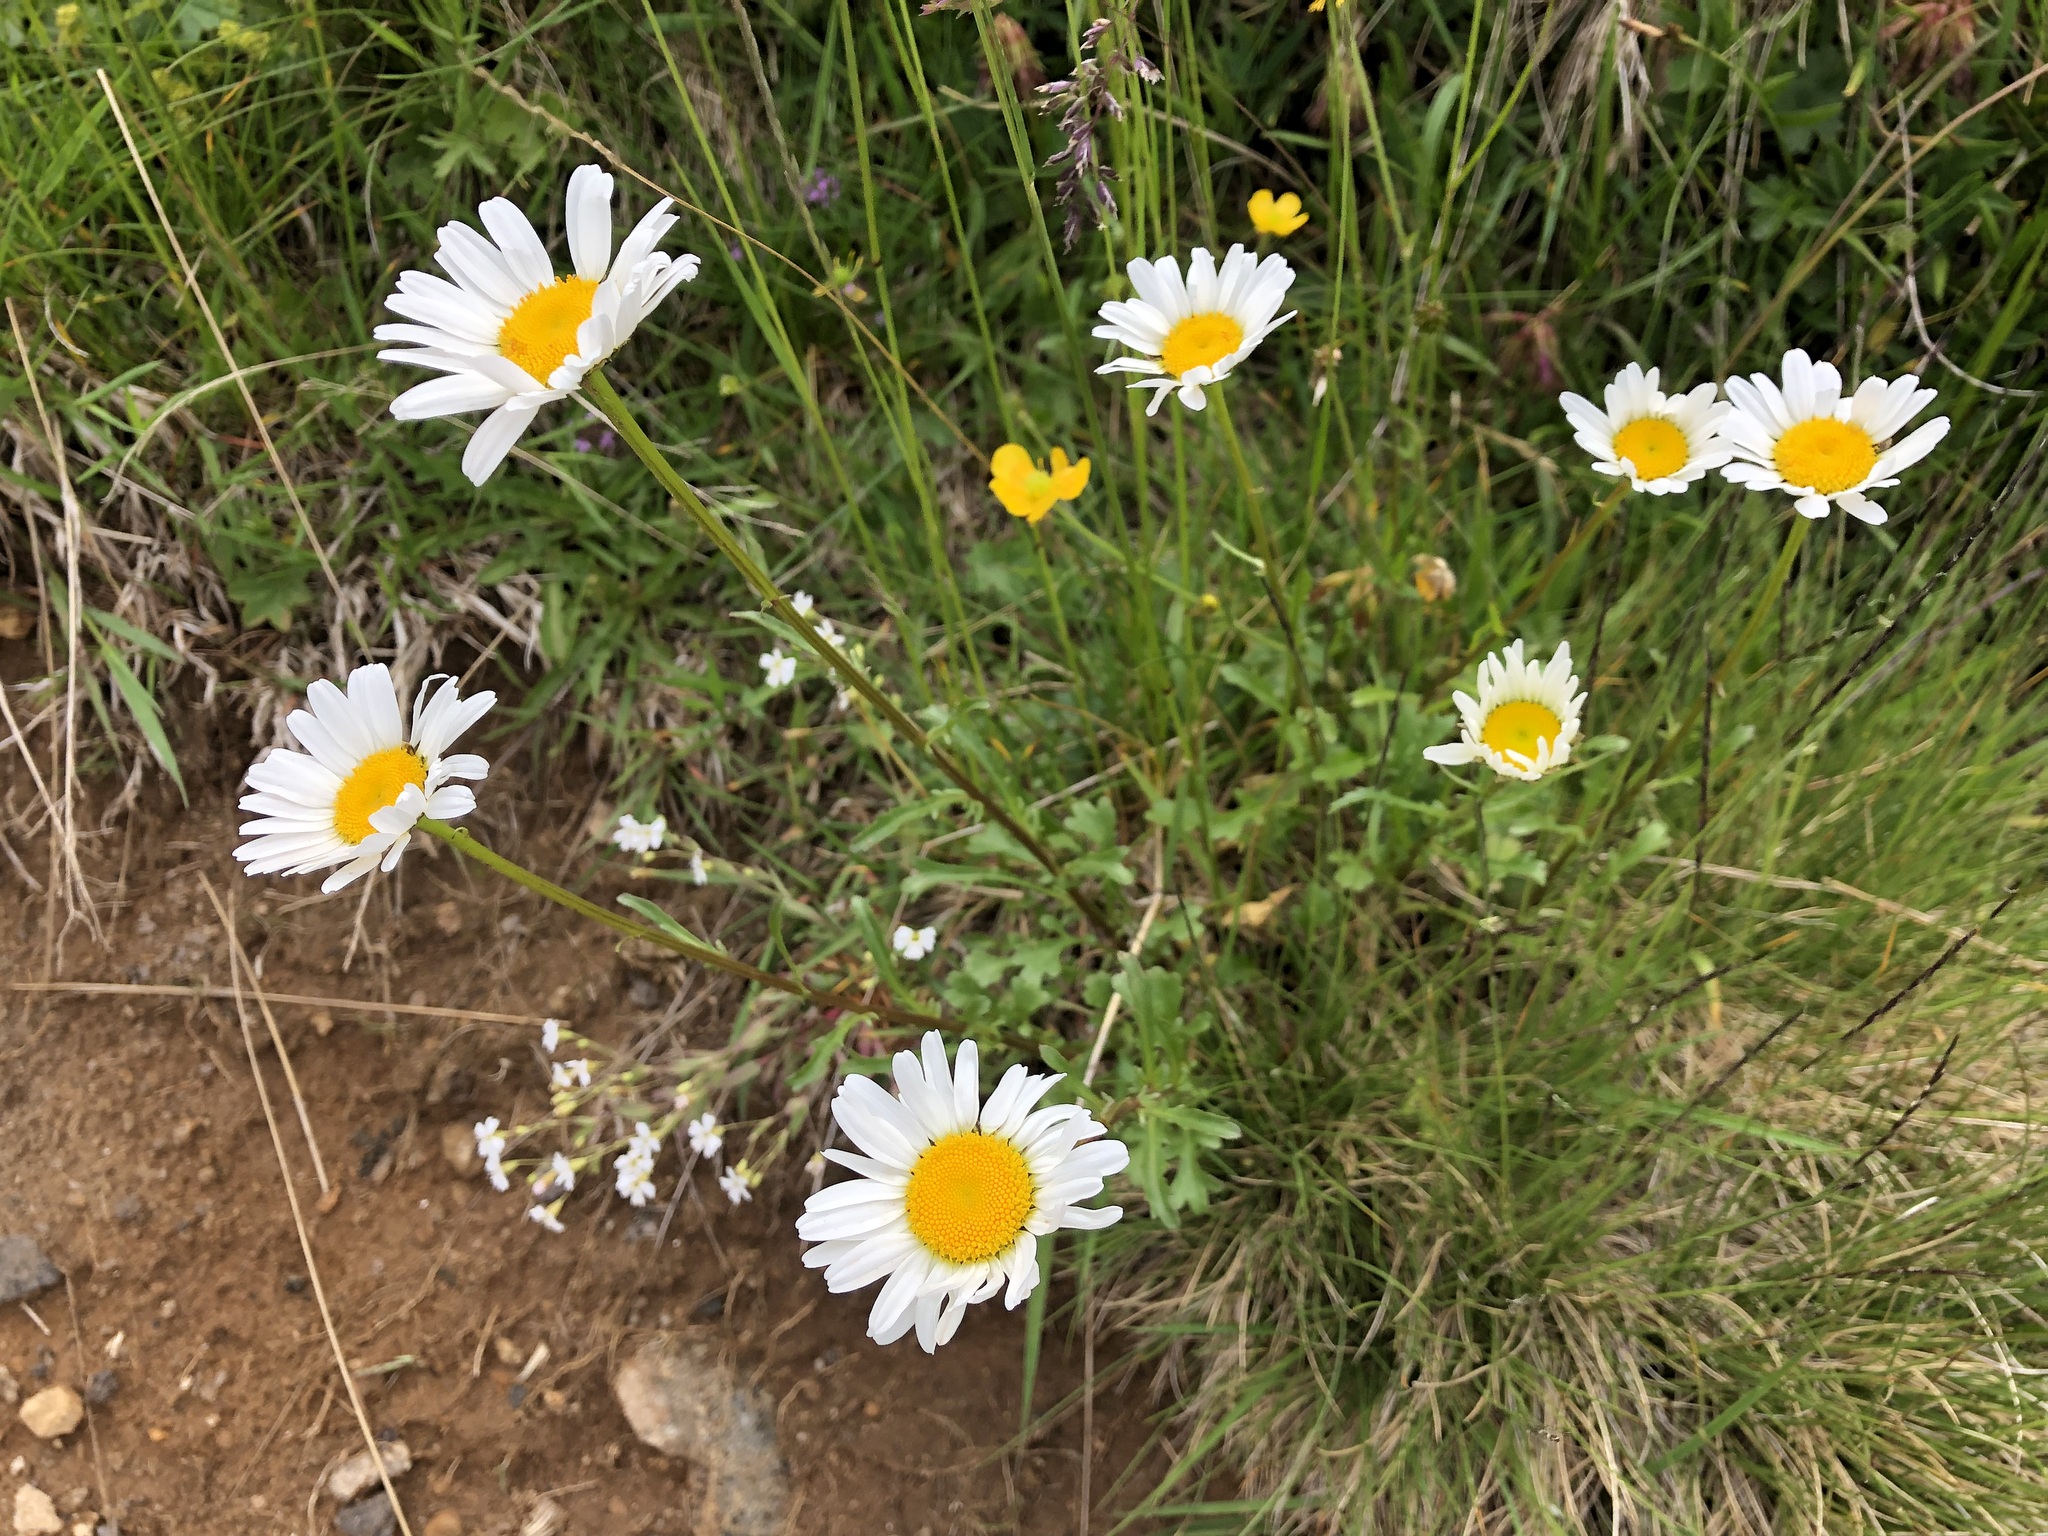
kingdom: Plantae
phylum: Tracheophyta
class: Magnoliopsida
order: Asterales
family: Asteraceae
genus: Leucanthemum
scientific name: Leucanthemum vulgare
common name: Oxeye daisy
